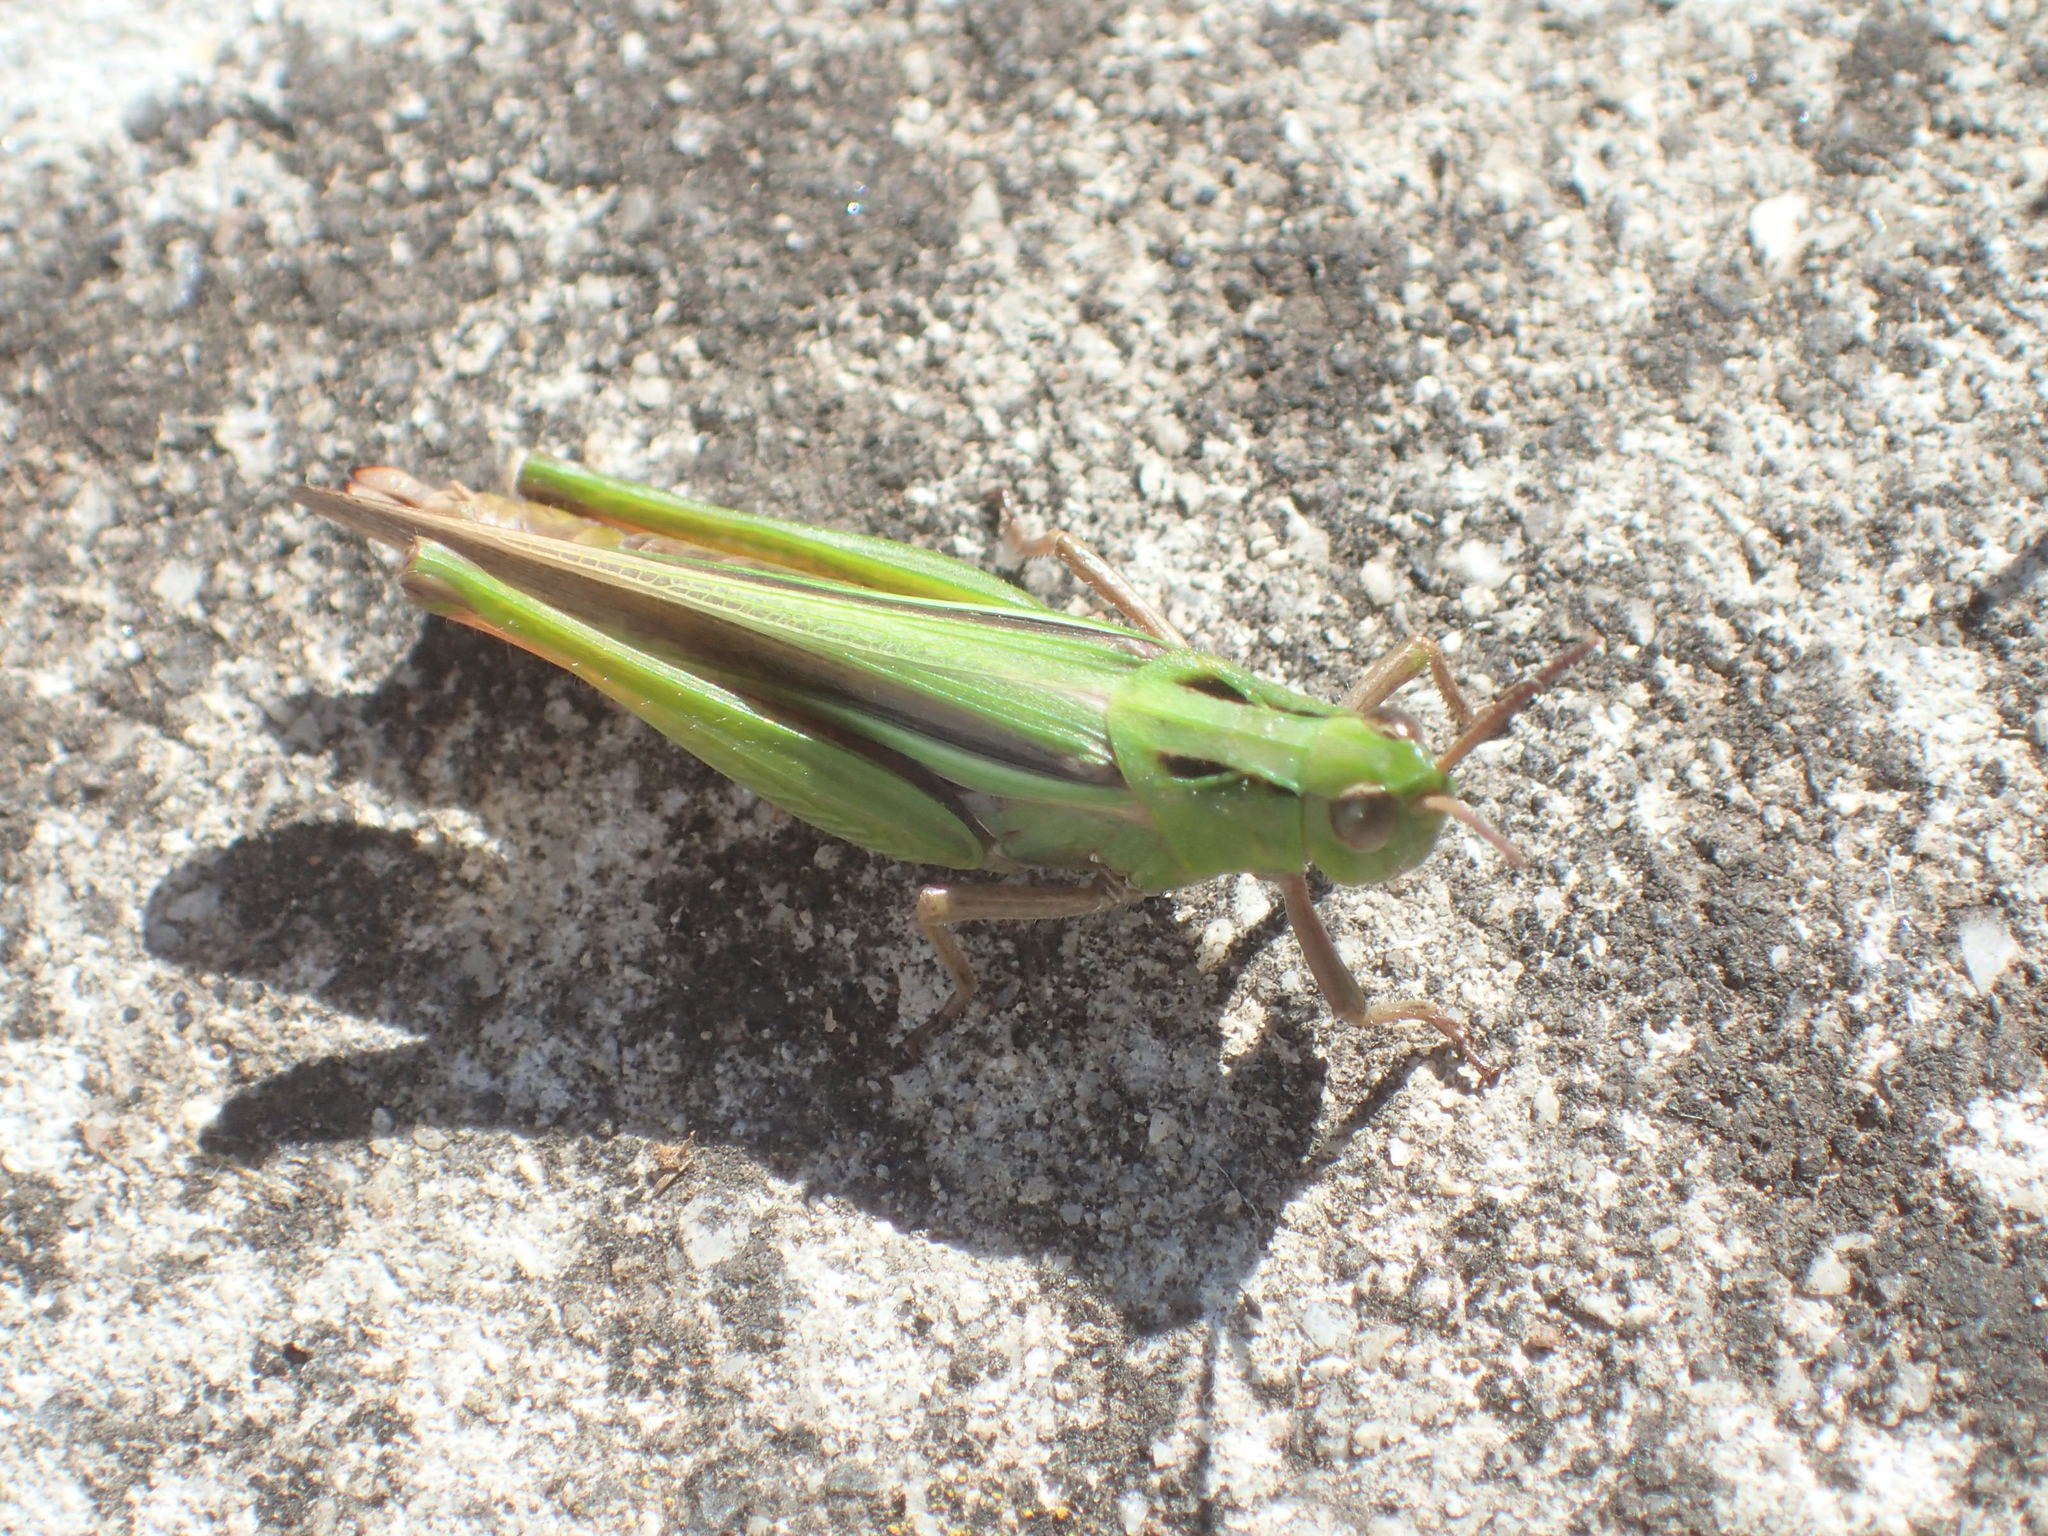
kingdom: Animalia
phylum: Arthropoda
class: Insecta
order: Orthoptera
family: Acrididae
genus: Schizobothrus
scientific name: Schizobothrus flavovittatus
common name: Disappearing grasshopper
